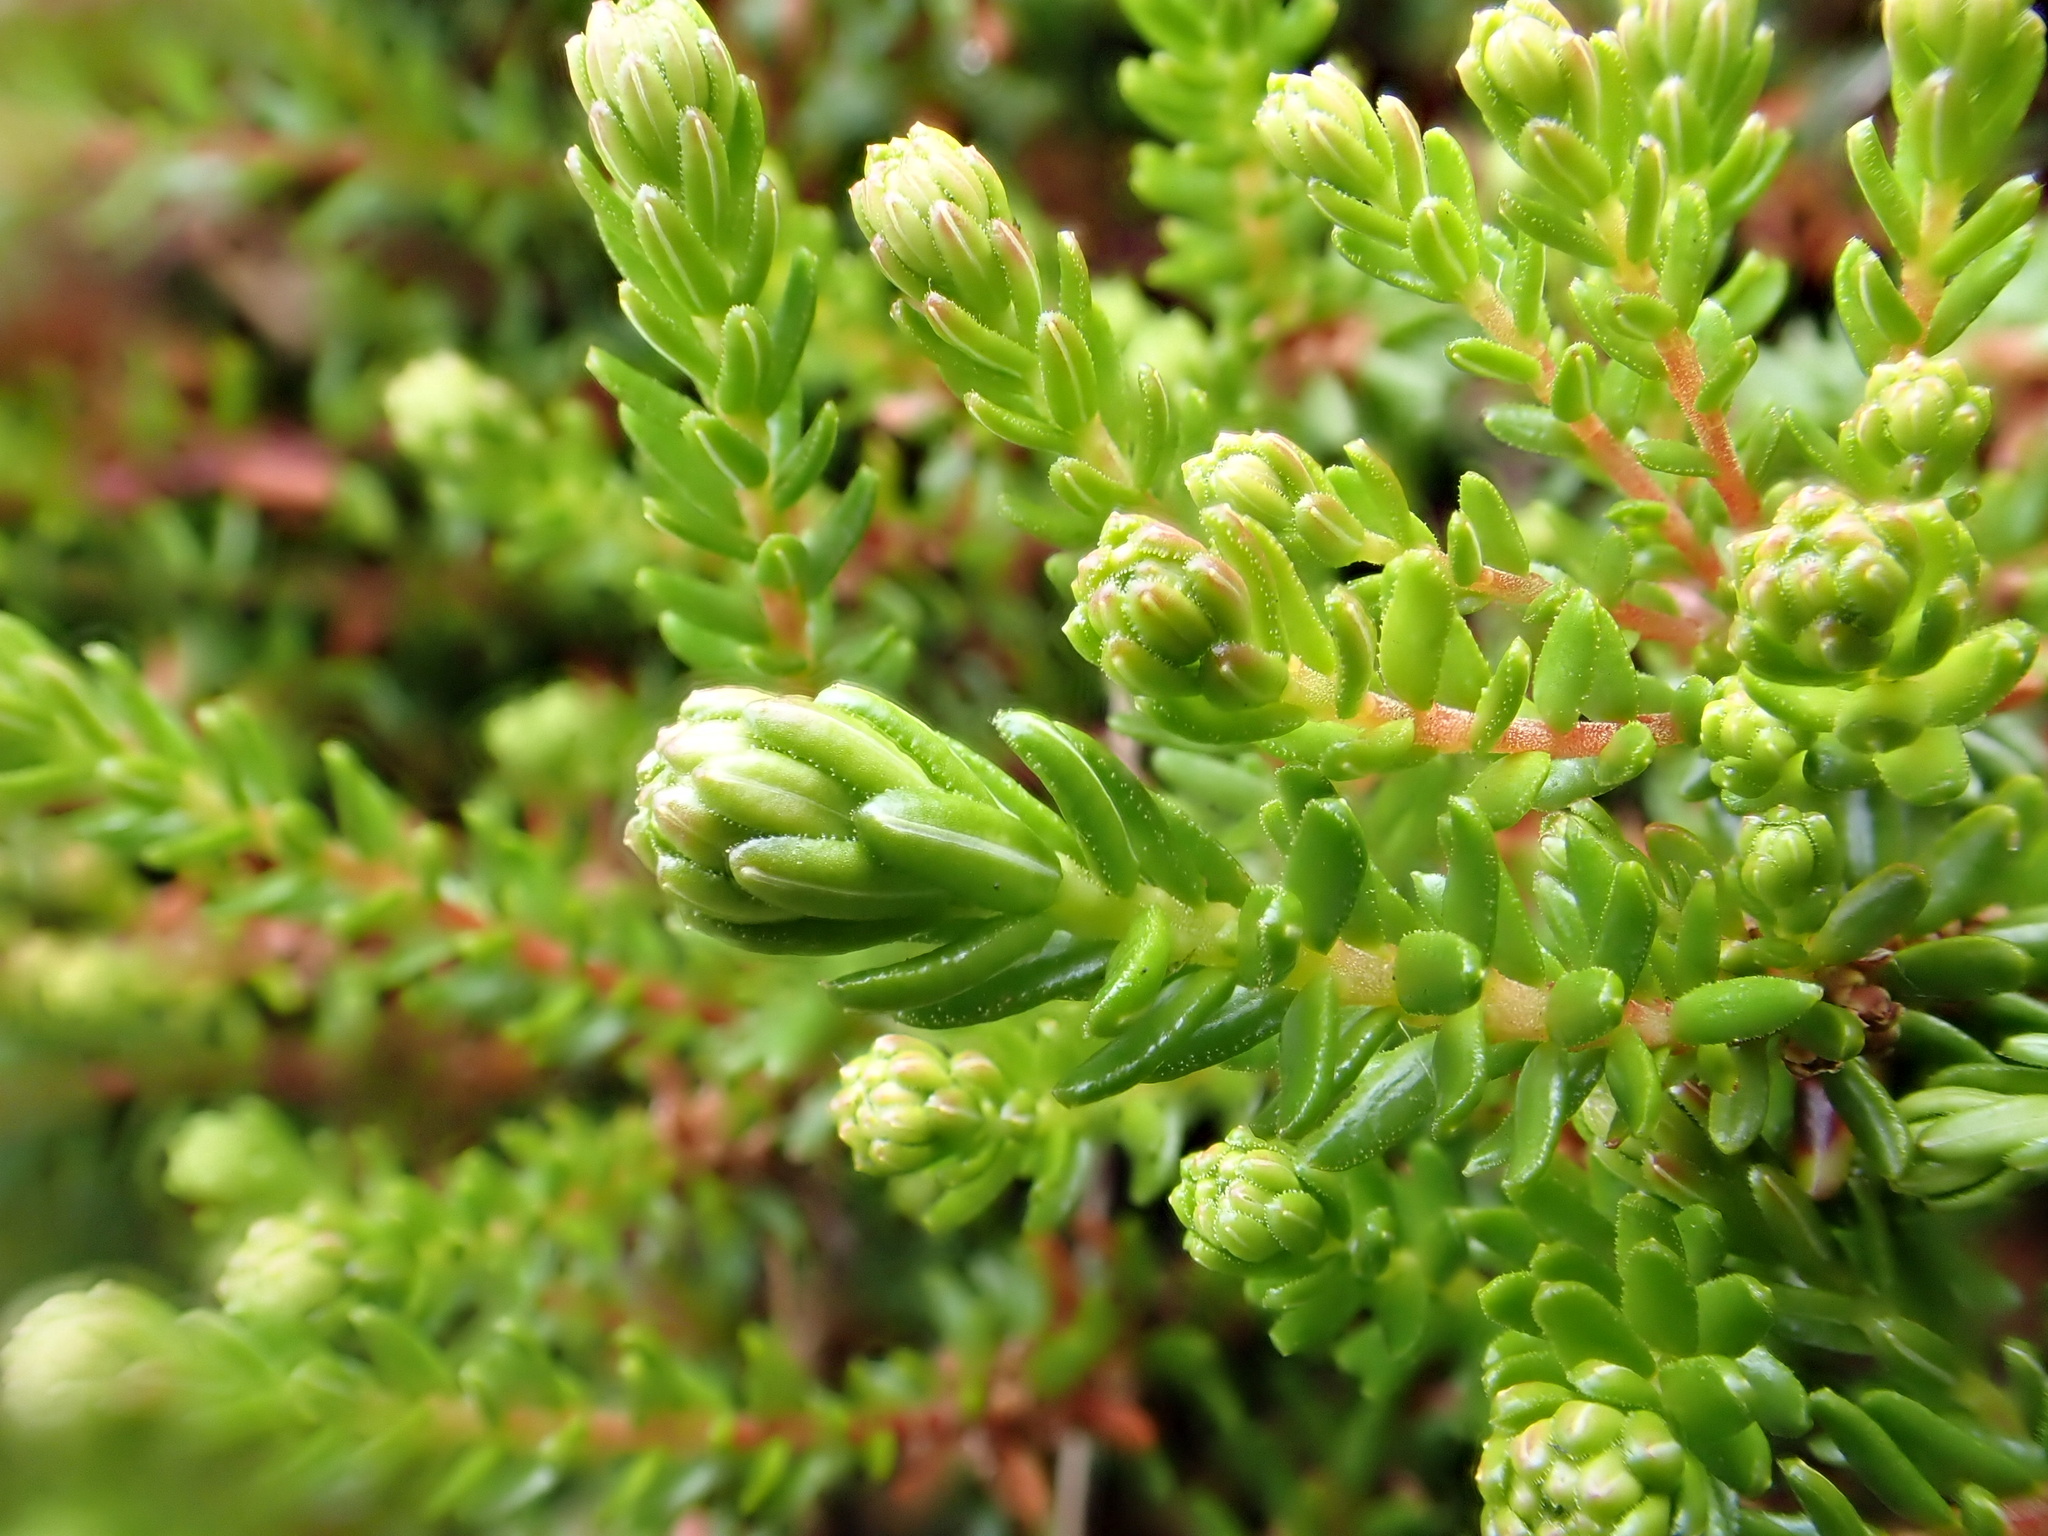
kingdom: Plantae
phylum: Tracheophyta
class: Magnoliopsida
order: Ericales
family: Ericaceae
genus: Empetrum
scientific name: Empetrum nigrum
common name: Black crowberry
